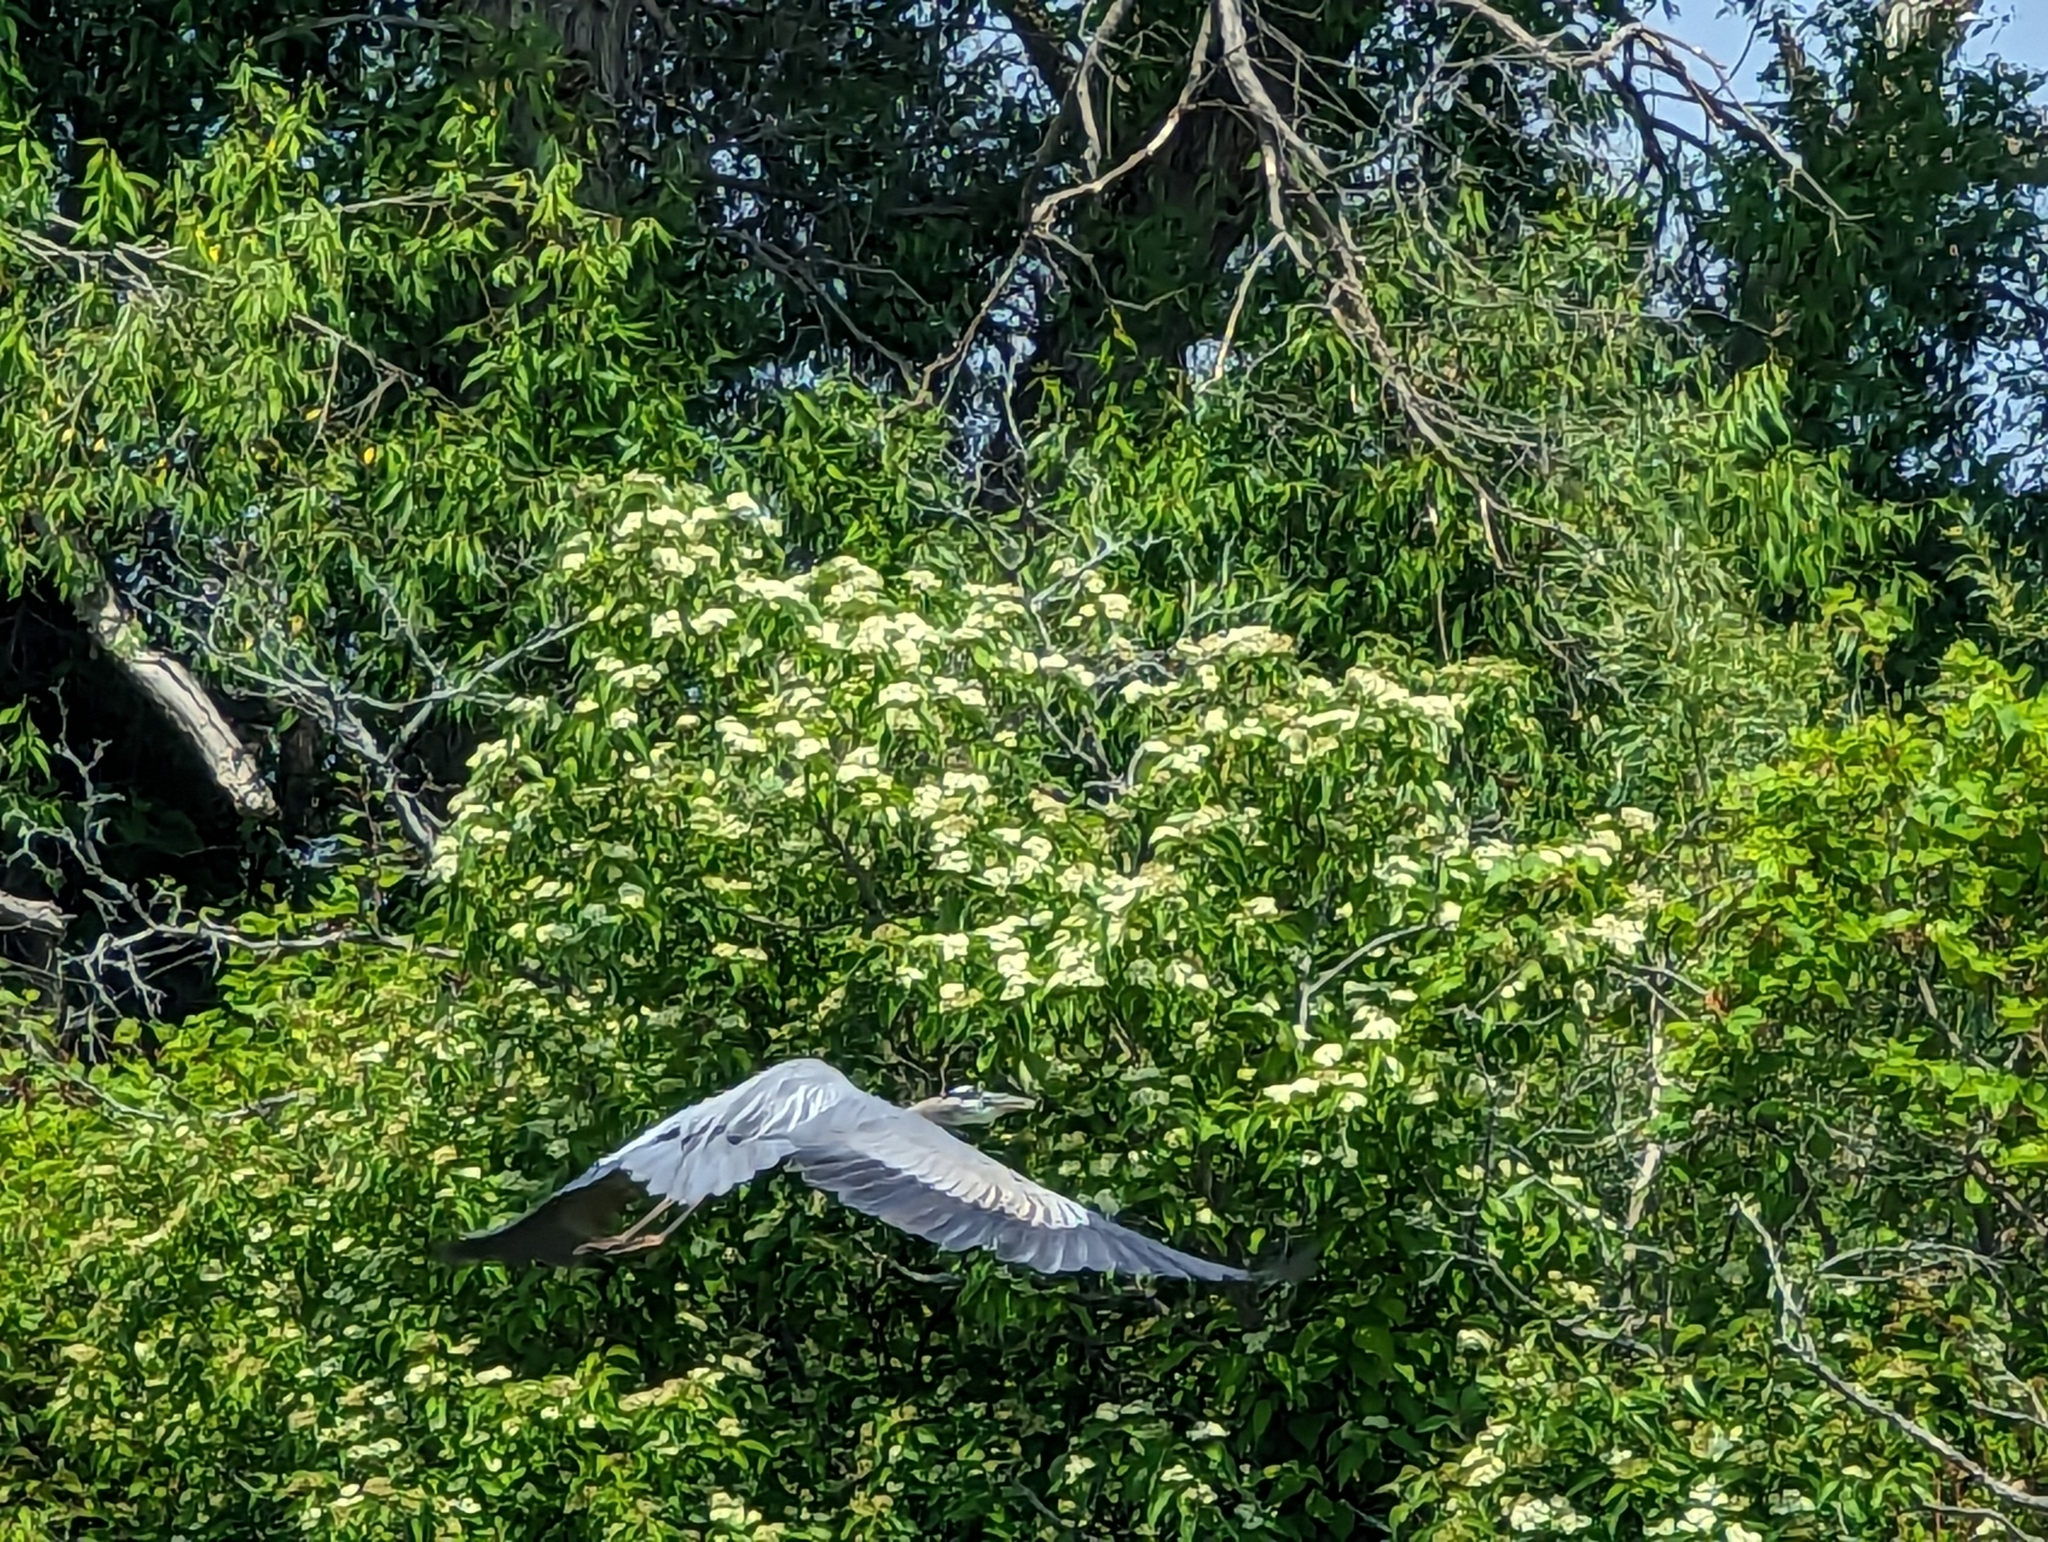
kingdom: Animalia
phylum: Chordata
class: Aves
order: Pelecaniformes
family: Ardeidae
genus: Ardea
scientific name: Ardea herodias
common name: Great blue heron
